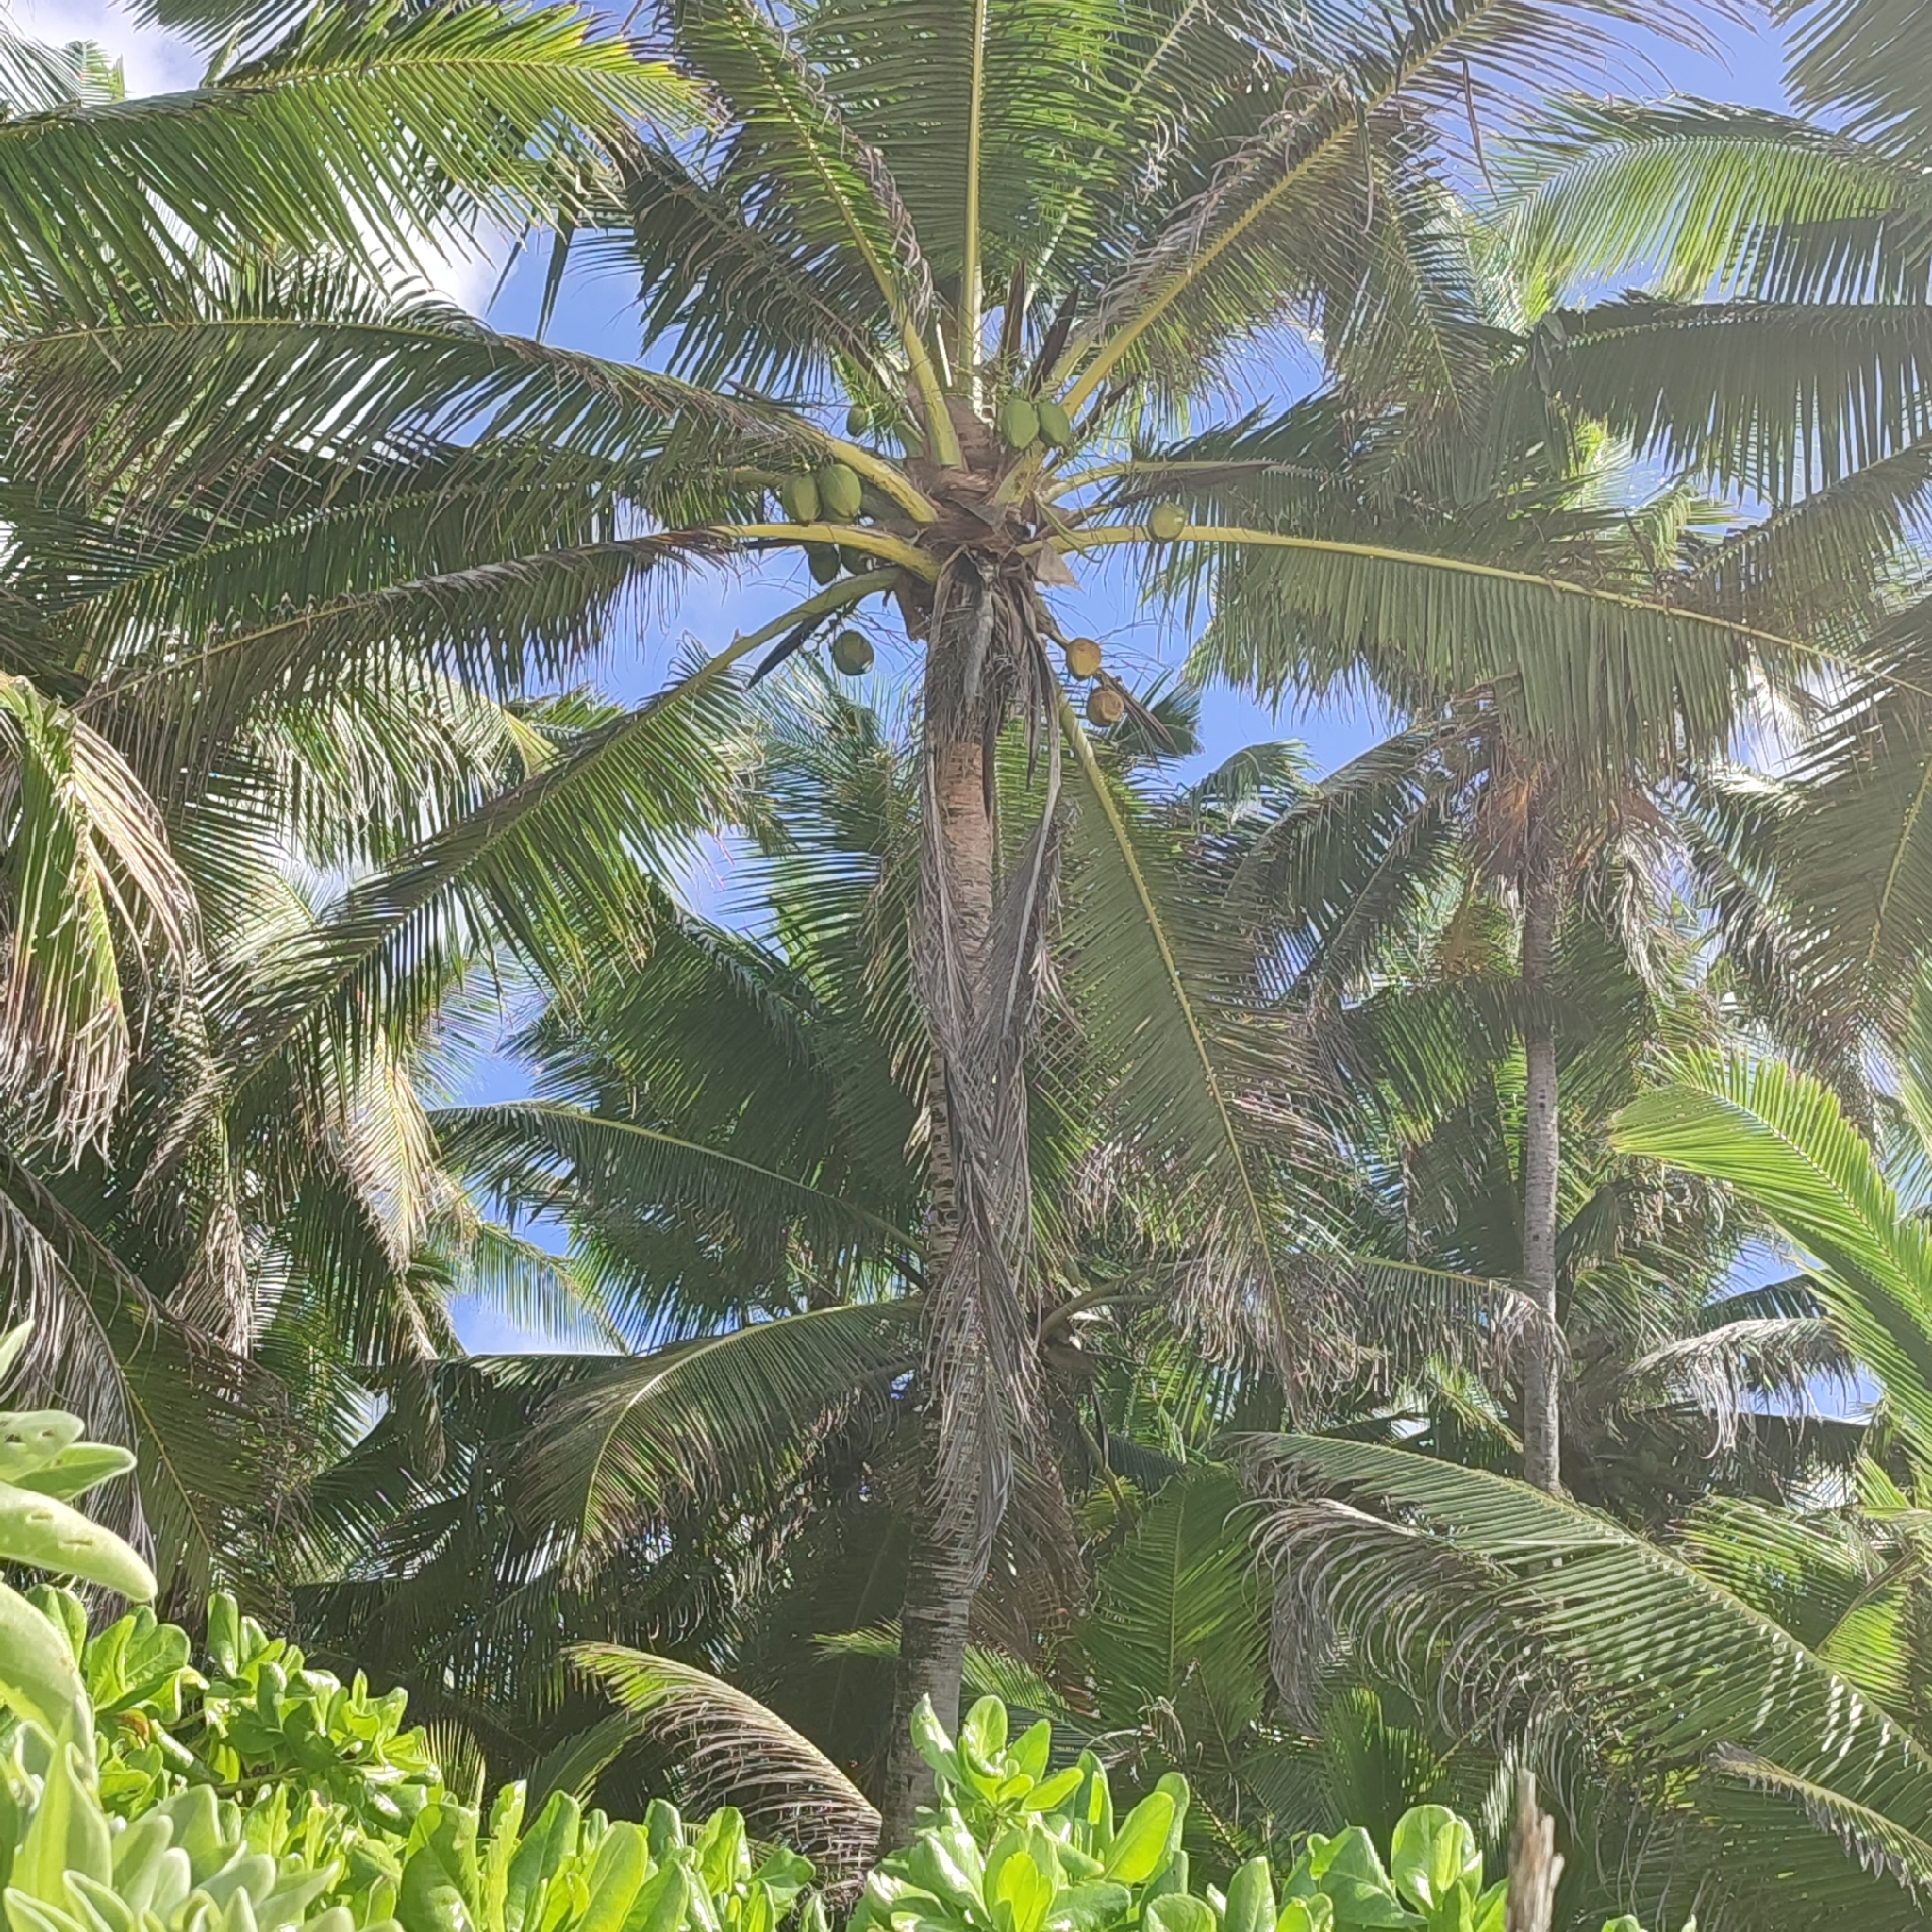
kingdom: Plantae
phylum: Tracheophyta
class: Liliopsida
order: Arecales
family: Arecaceae
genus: Cocos
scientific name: Cocos nucifera
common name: Coconut palm
